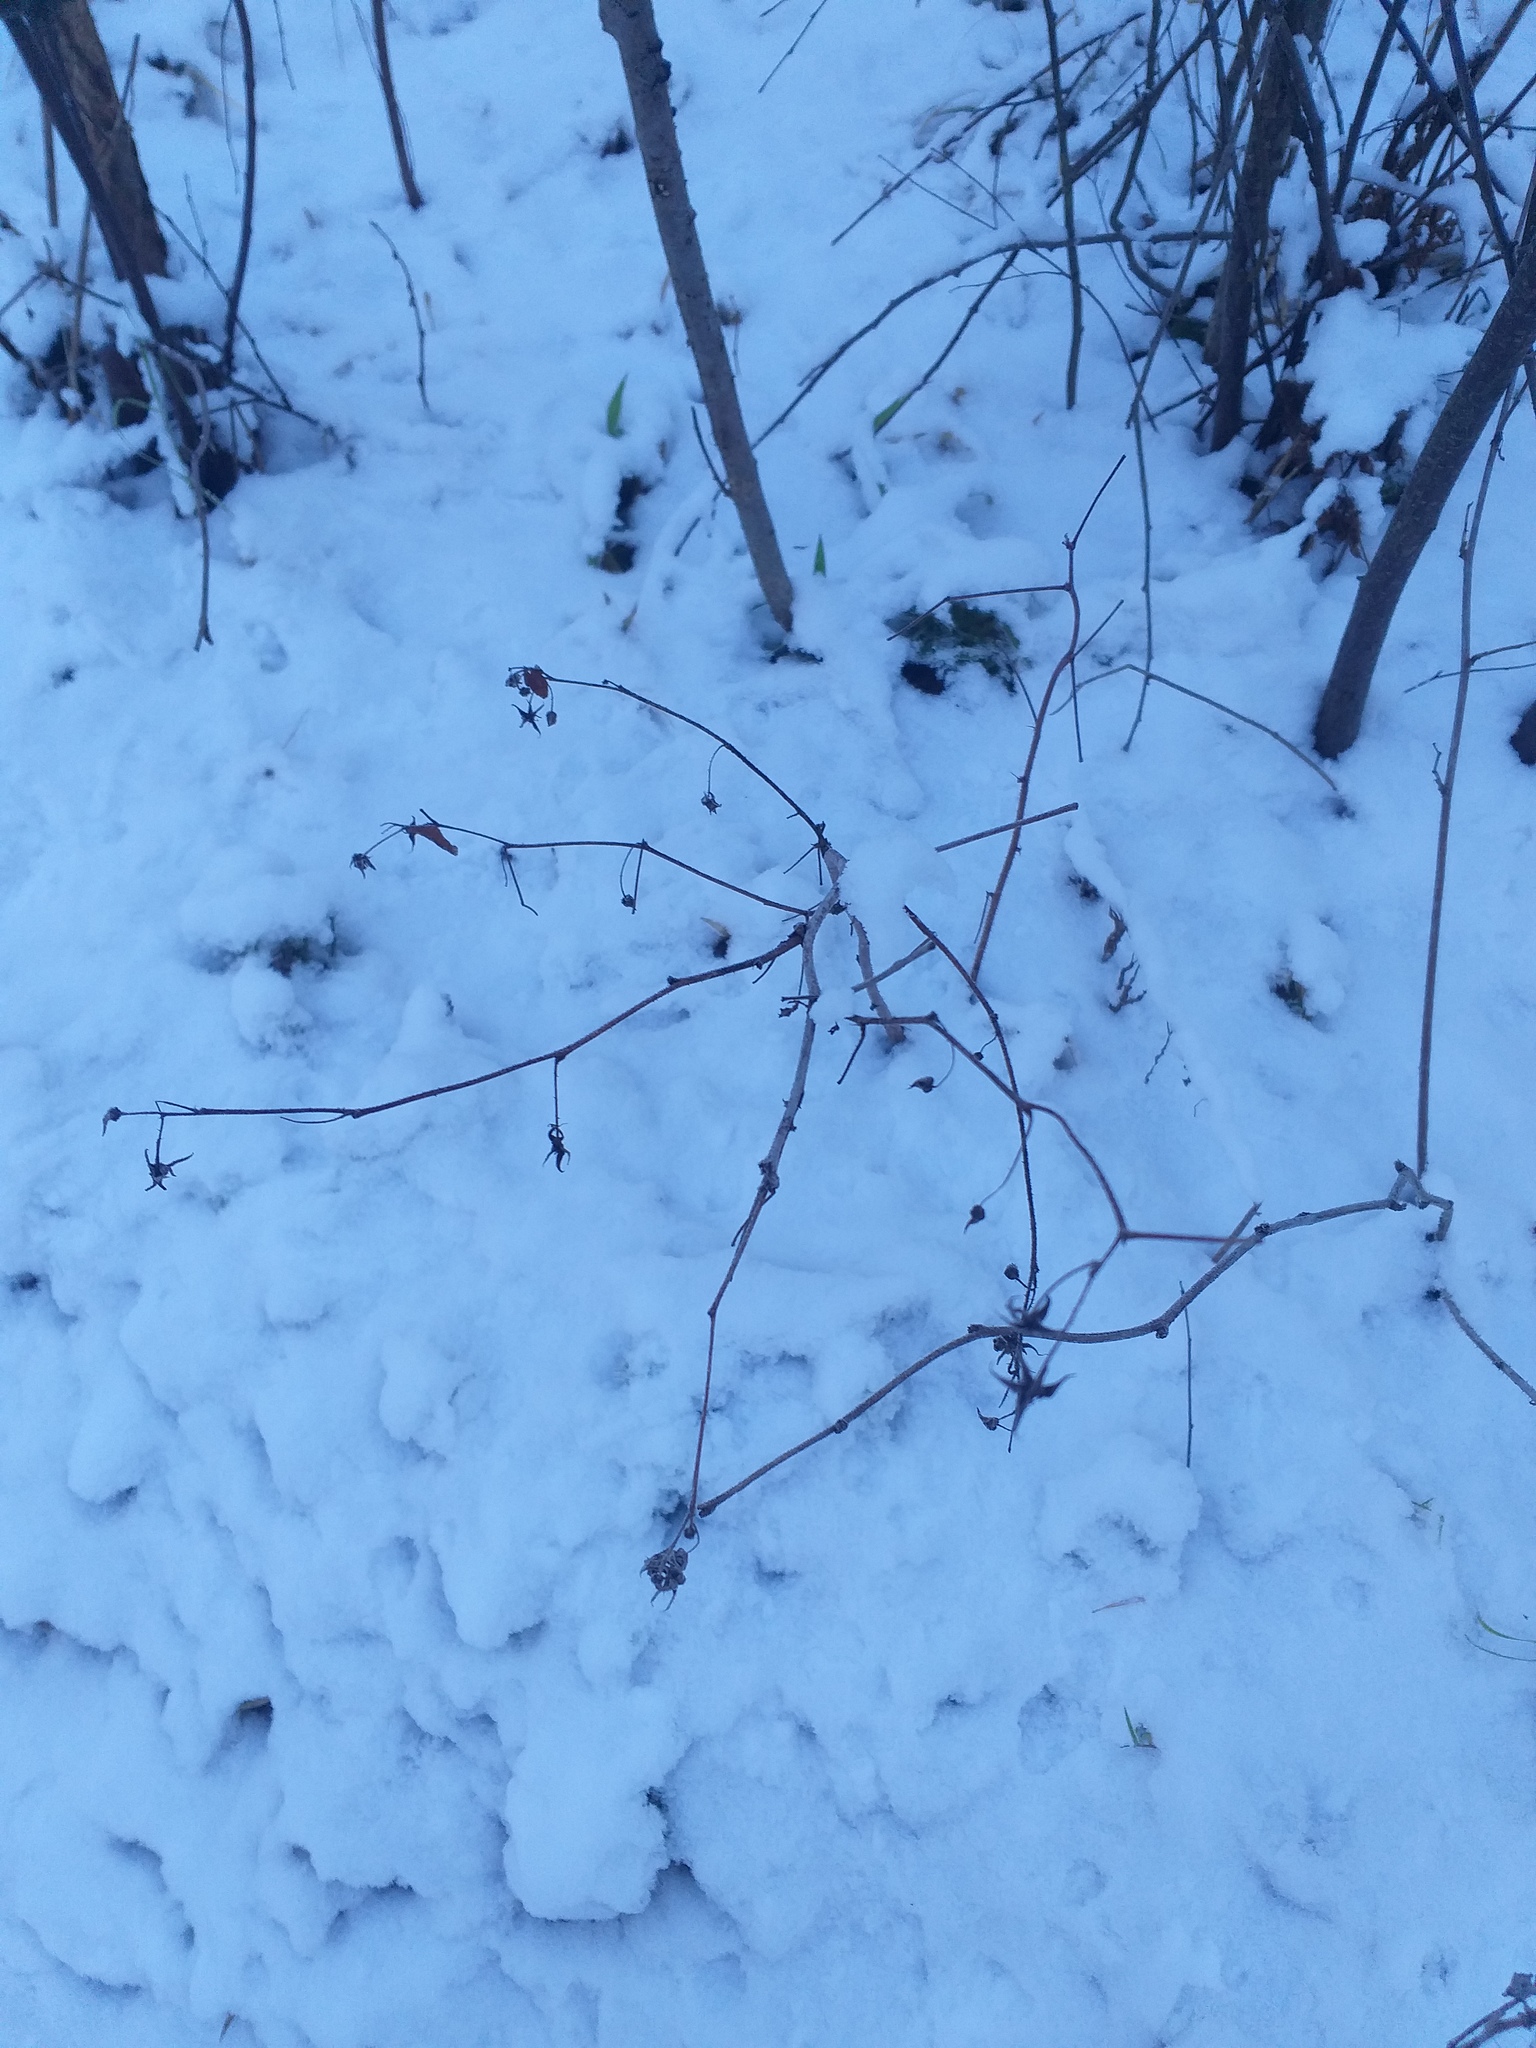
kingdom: Plantae
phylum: Tracheophyta
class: Magnoliopsida
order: Rosales
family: Rosaceae
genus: Rubus
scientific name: Rubus idaeus
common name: Raspberry
